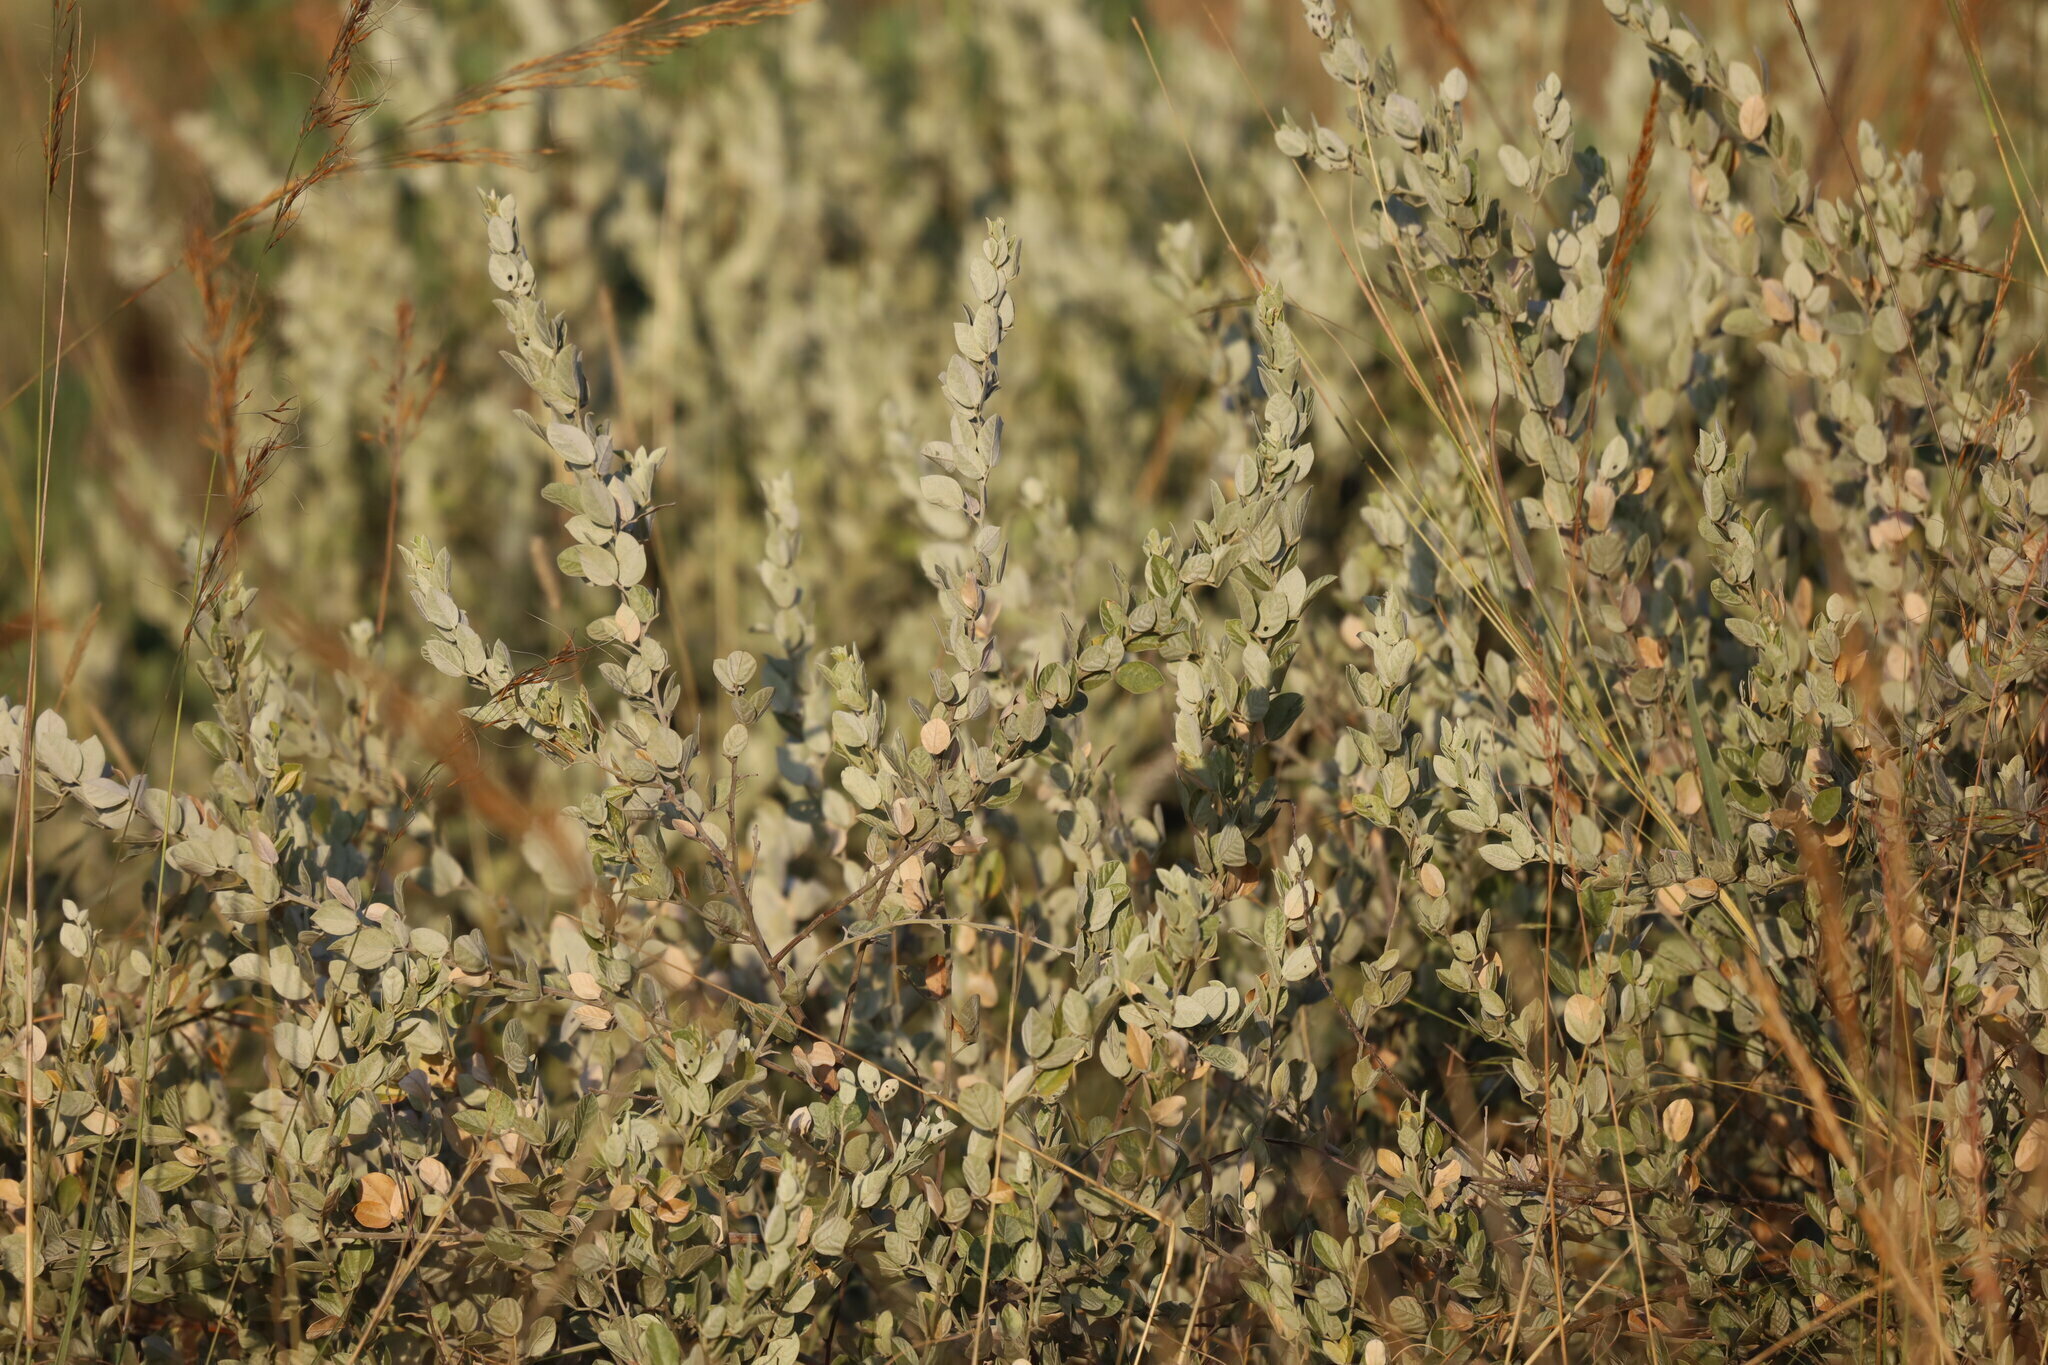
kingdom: Plantae
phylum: Tracheophyta
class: Magnoliopsida
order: Fabales
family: Fabaceae
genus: Rhynchosia
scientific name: Rhynchosia nitens
